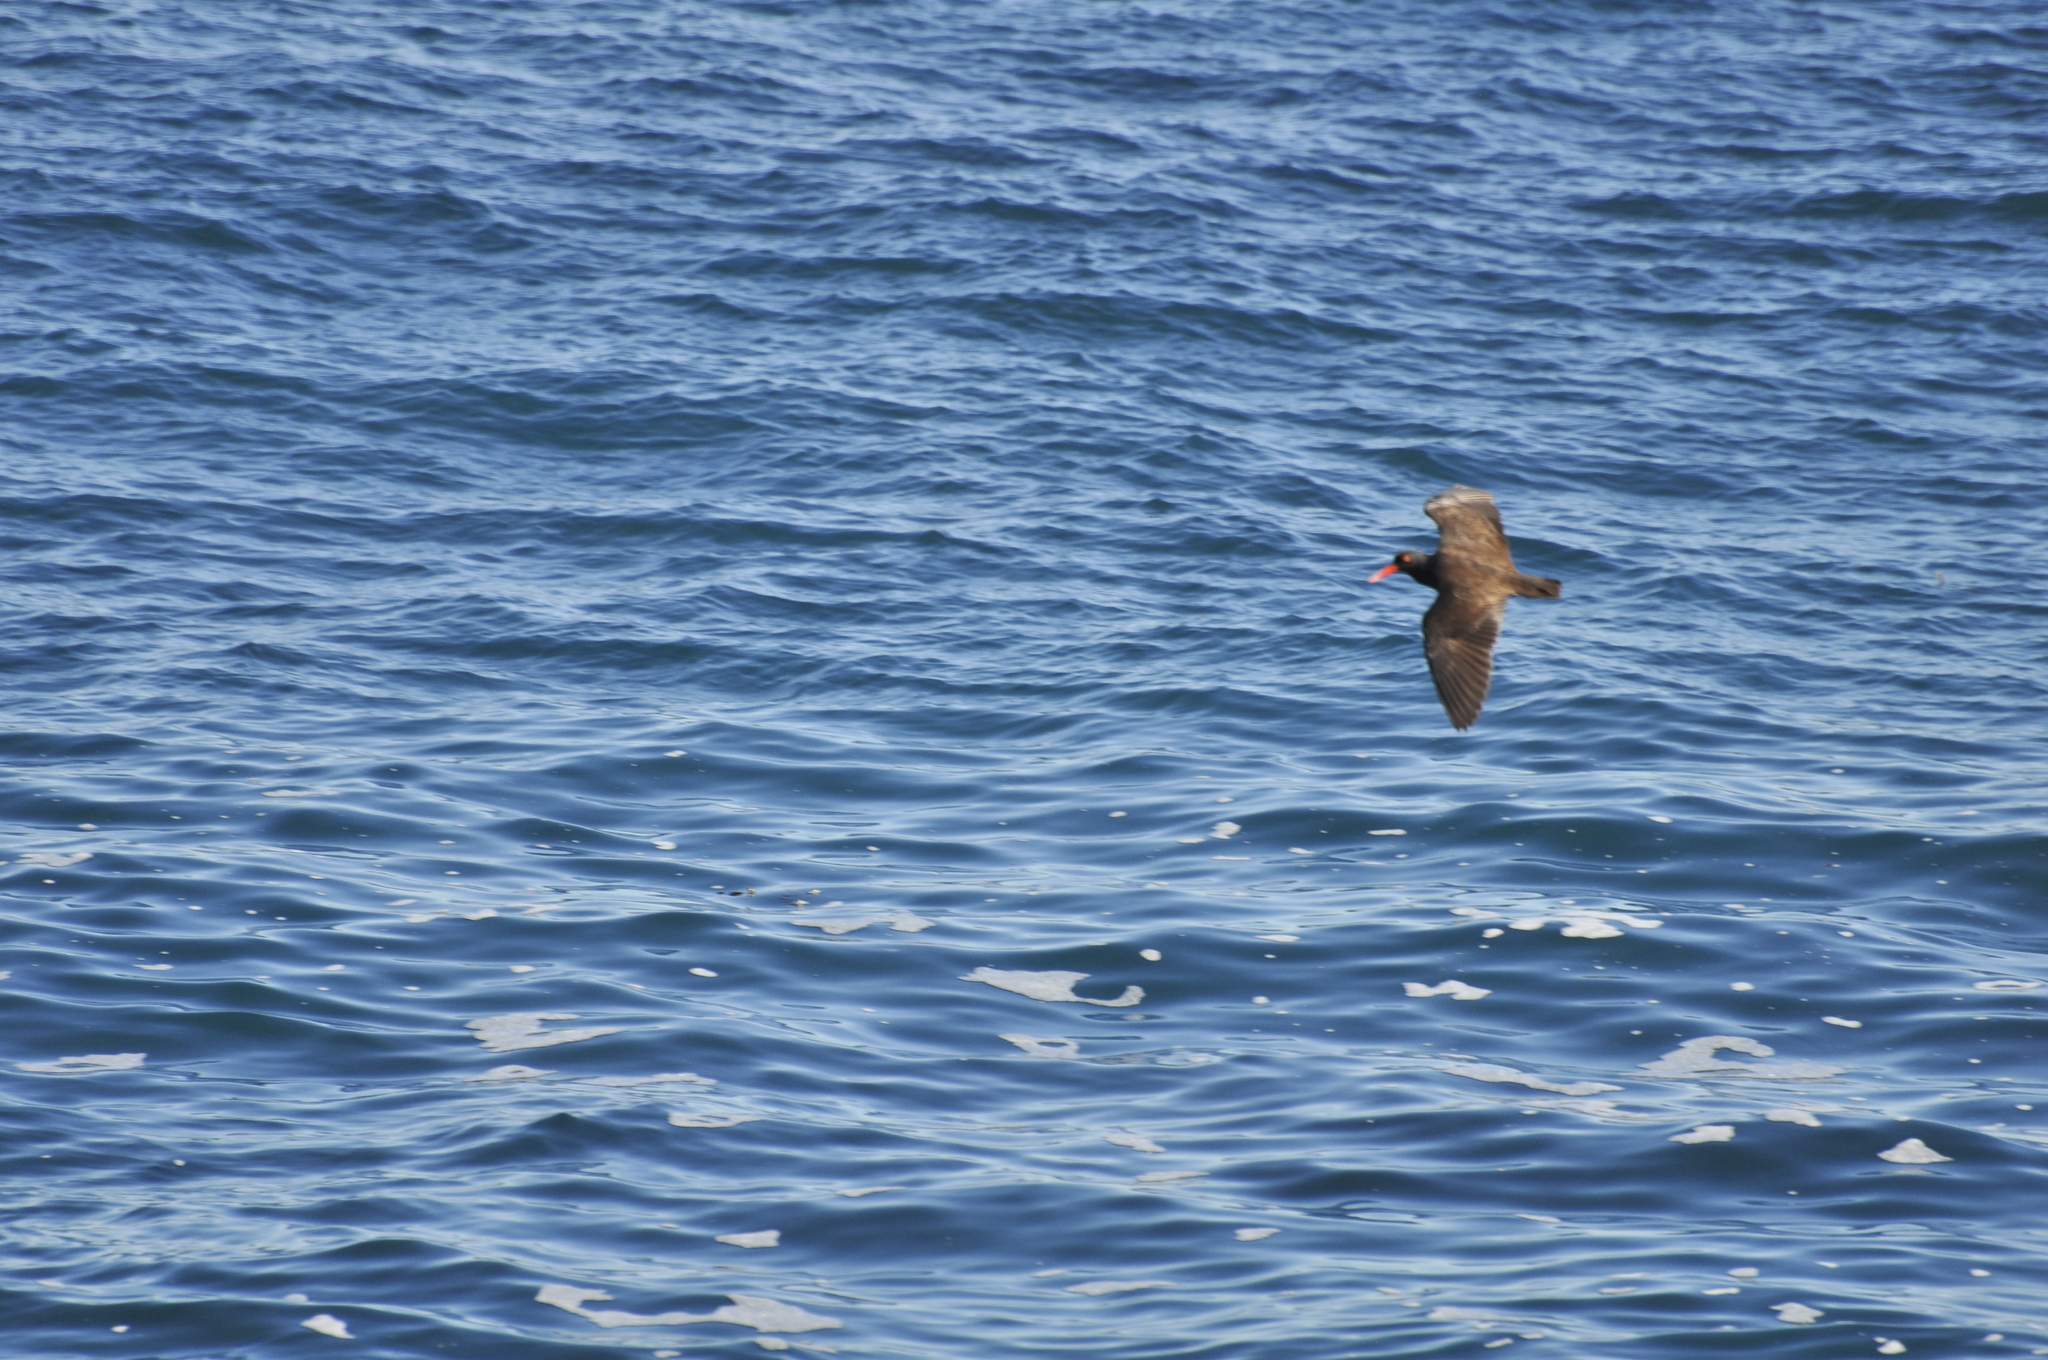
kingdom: Animalia
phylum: Chordata
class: Aves
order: Charadriiformes
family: Haematopodidae
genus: Haematopus
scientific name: Haematopus bachmani
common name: Black oystercatcher
